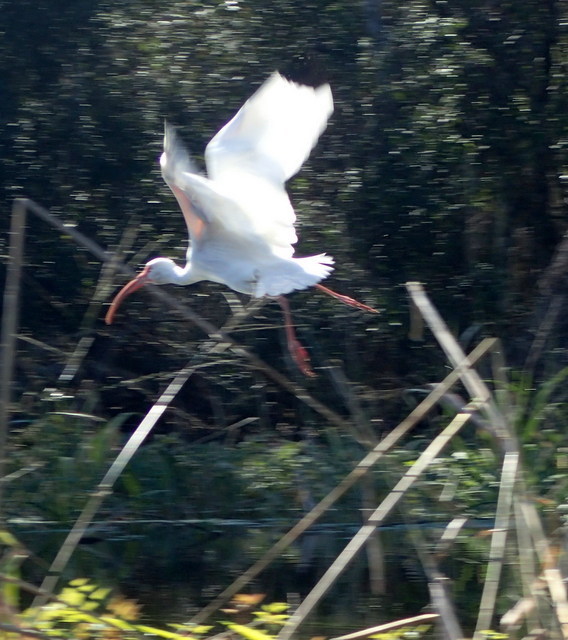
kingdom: Animalia
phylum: Chordata
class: Aves
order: Pelecaniformes
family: Threskiornithidae
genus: Eudocimus
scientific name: Eudocimus albus
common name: White ibis
